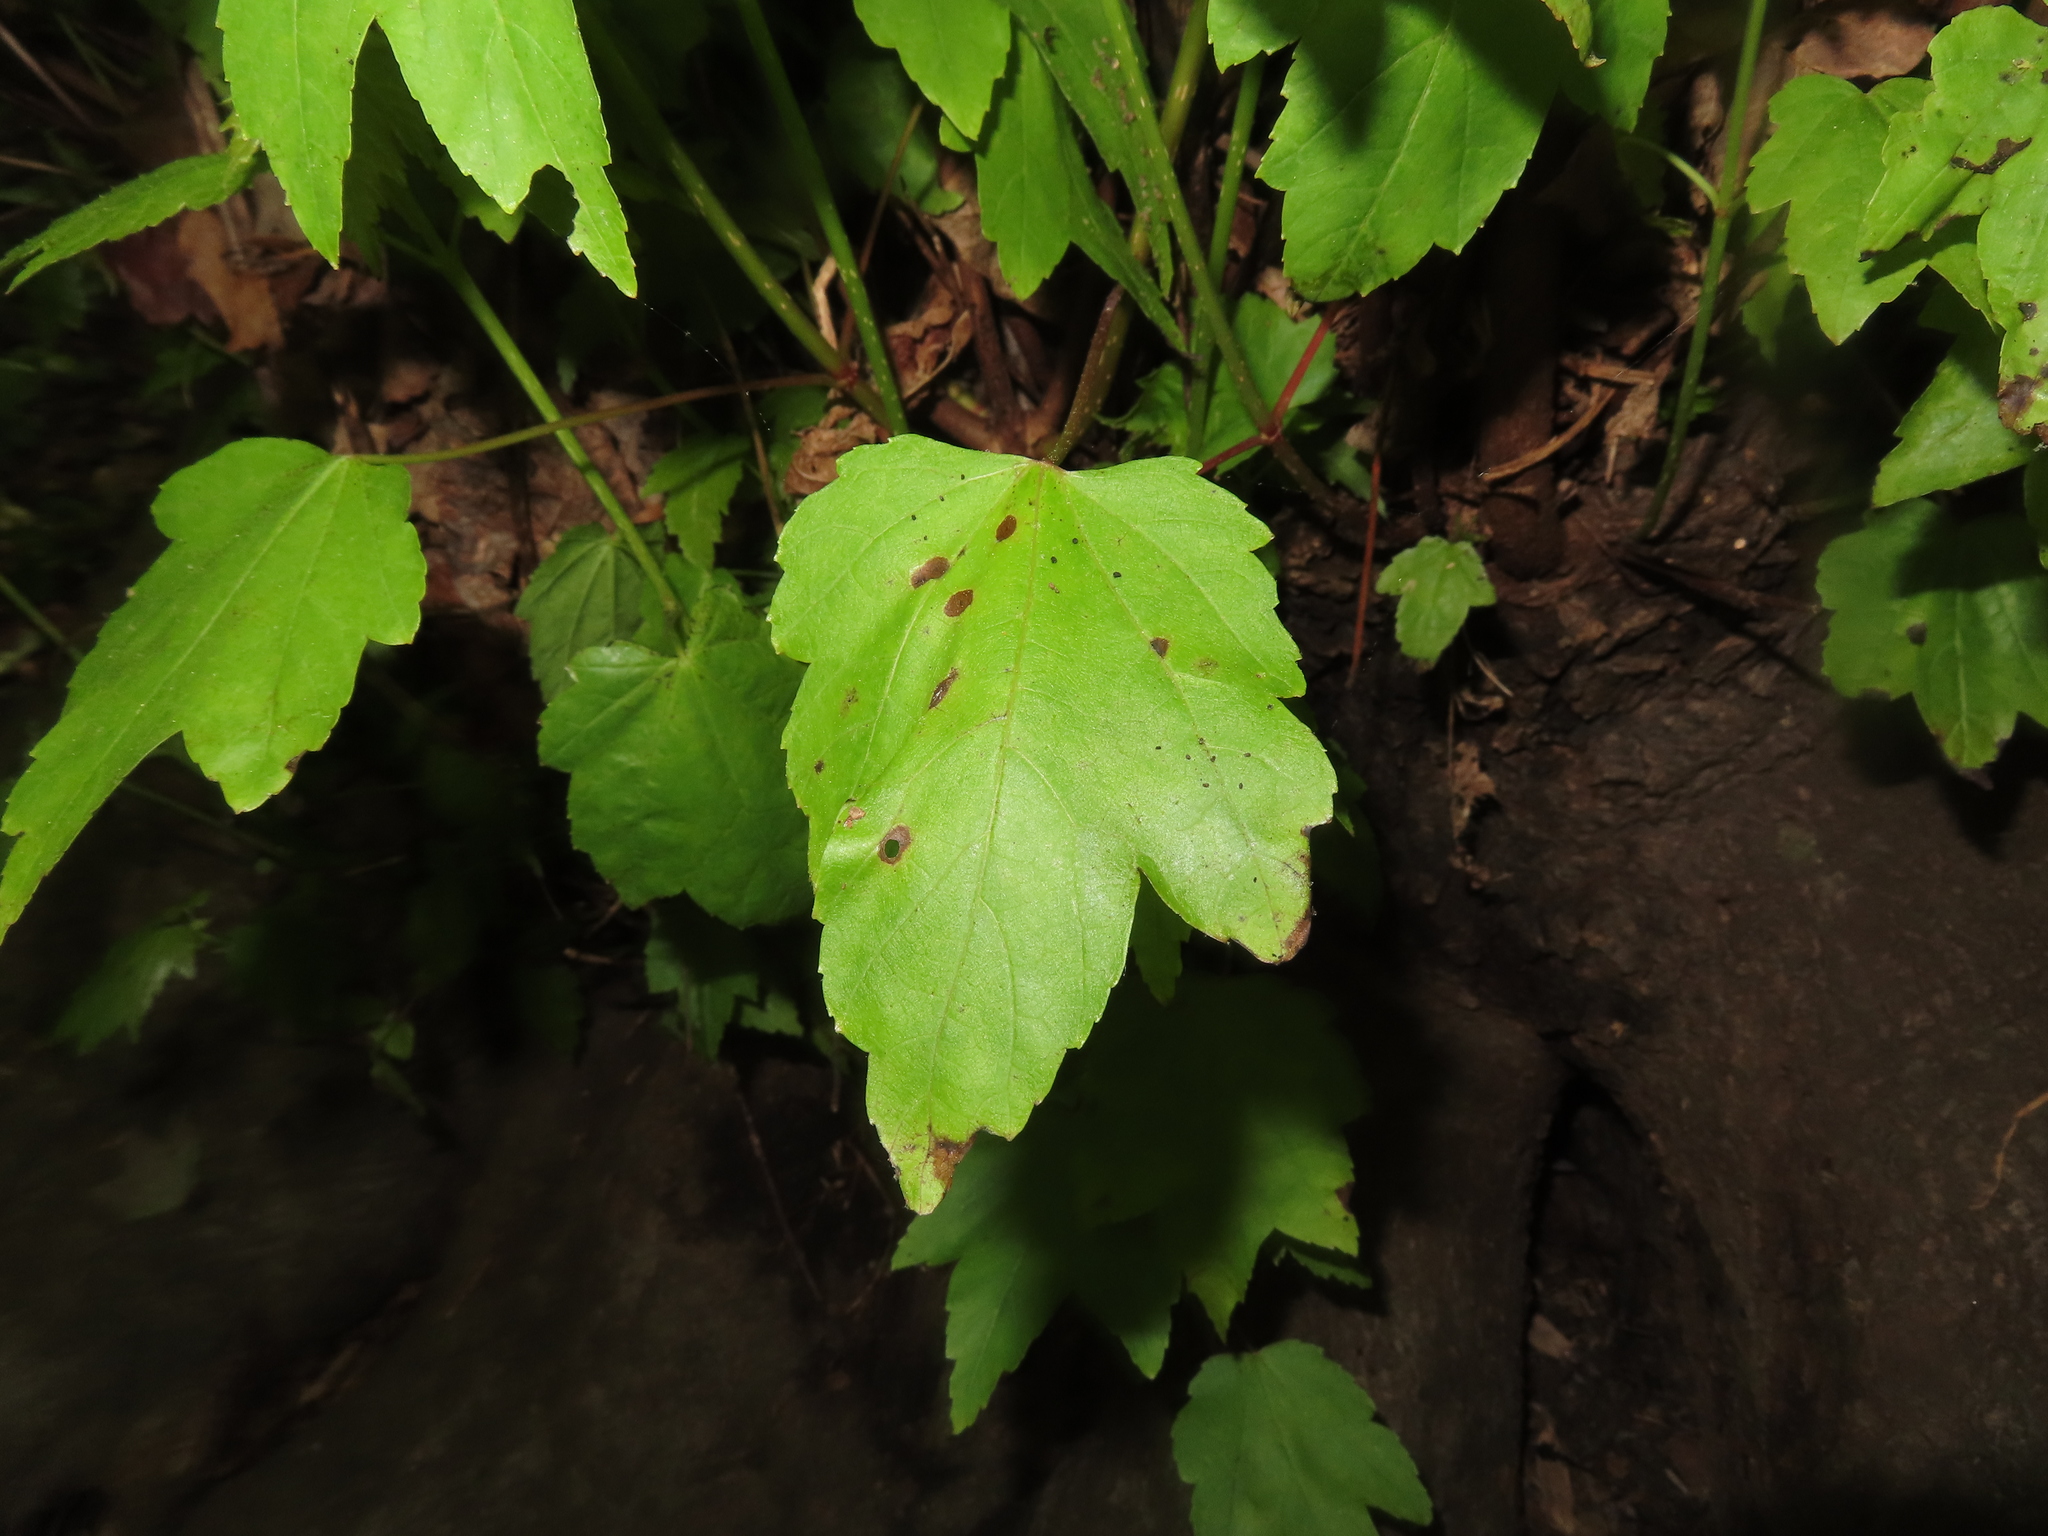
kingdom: Animalia
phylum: Arthropoda
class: Insecta
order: Diptera
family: Cecidomyiidae
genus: Acericecis
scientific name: Acericecis ocellaris
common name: Ocellate gall midge
